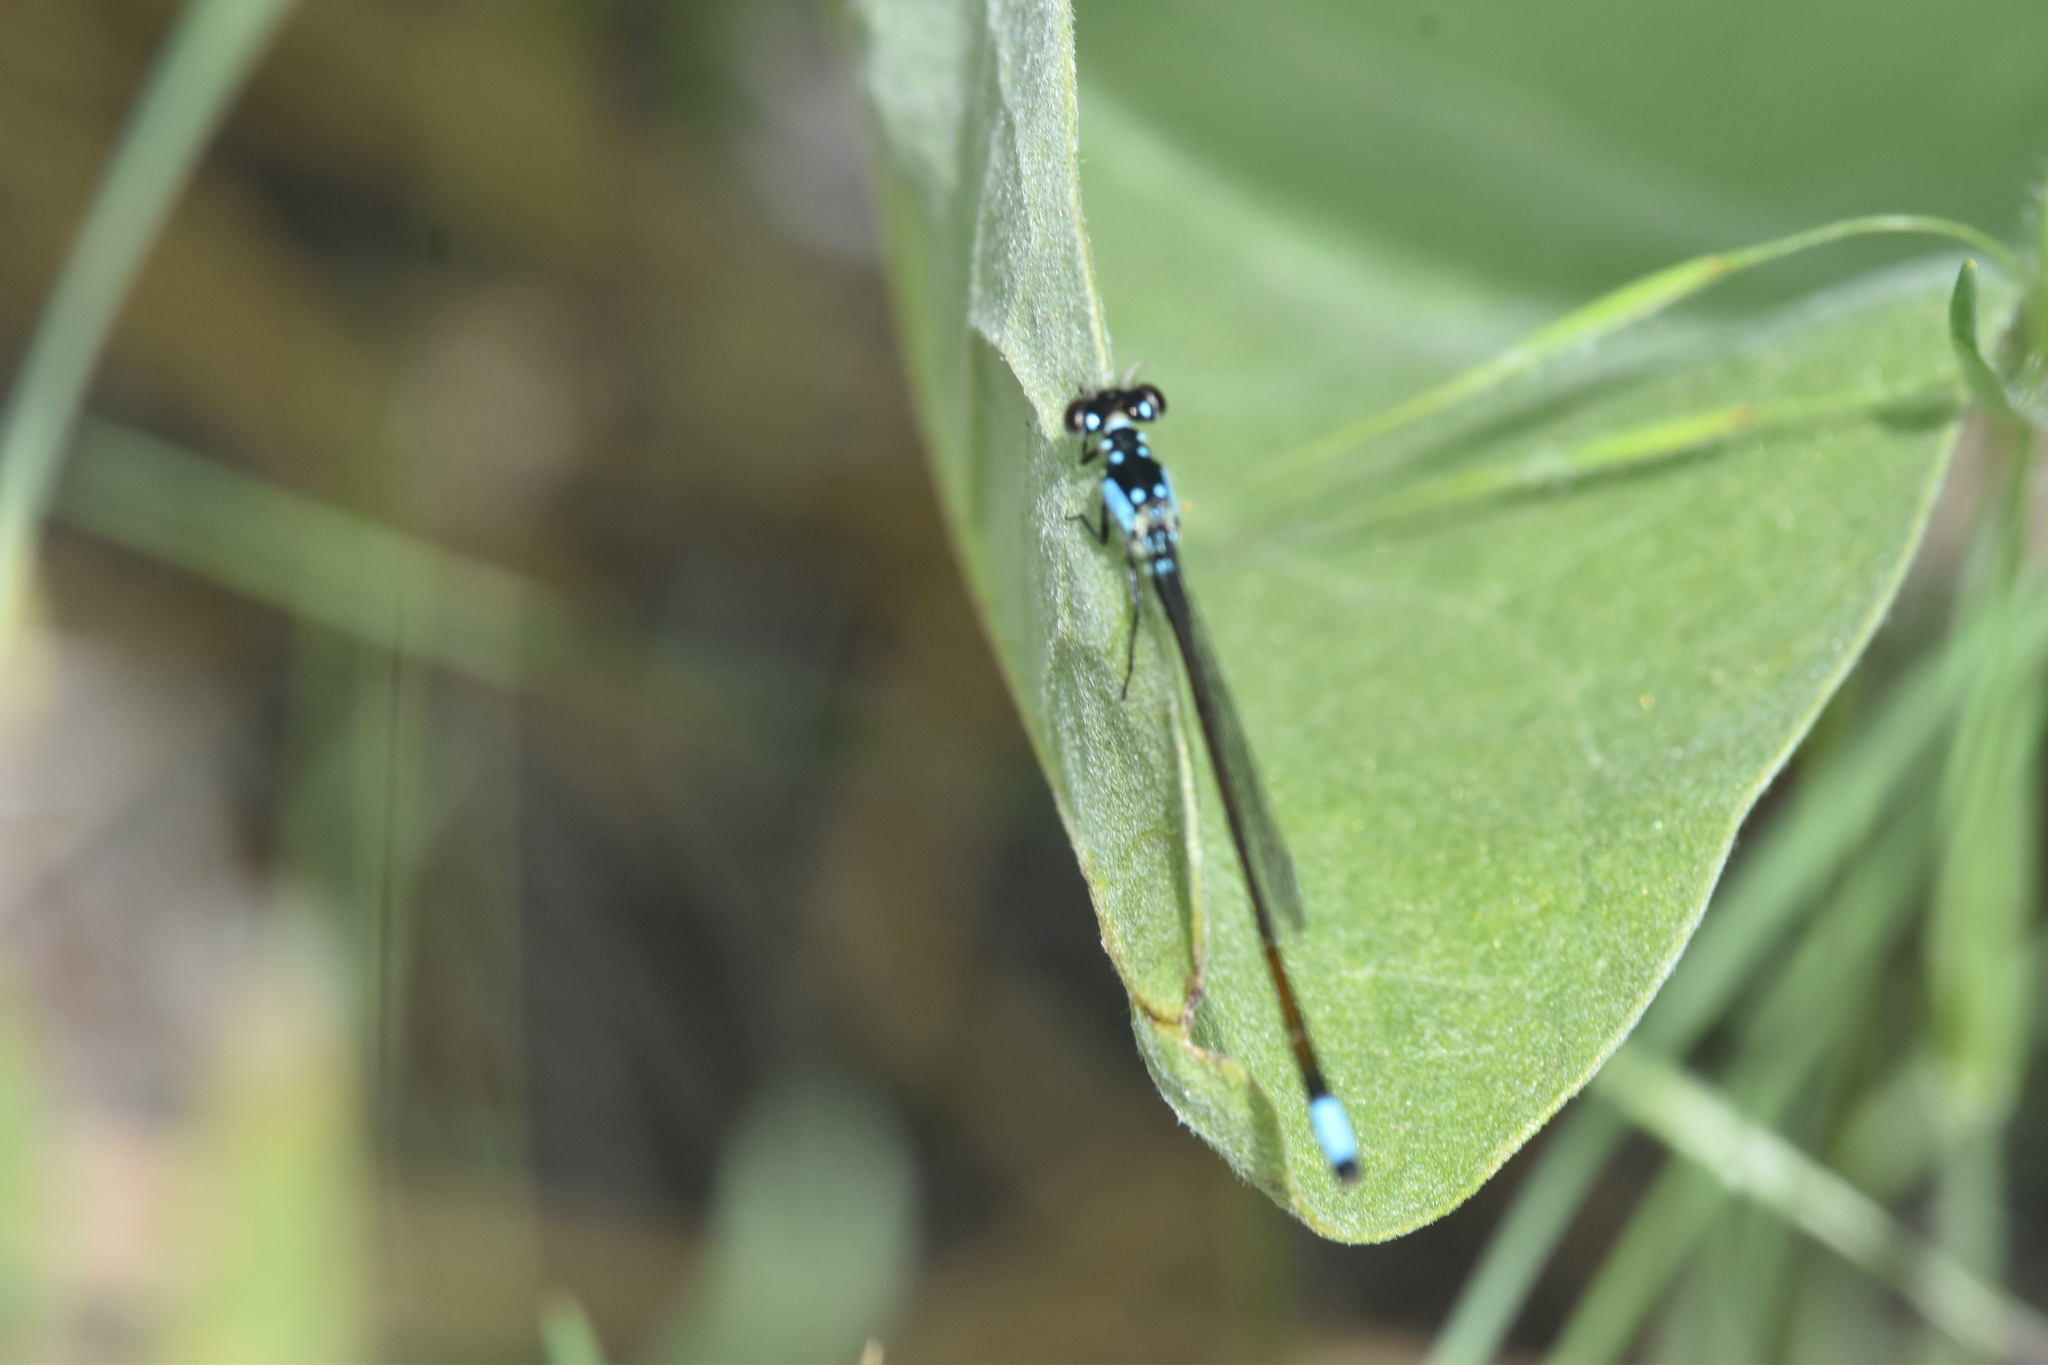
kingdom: Animalia
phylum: Arthropoda
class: Insecta
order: Odonata
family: Coenagrionidae
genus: Ischnura
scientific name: Ischnura cervula
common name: Pacific forktail
